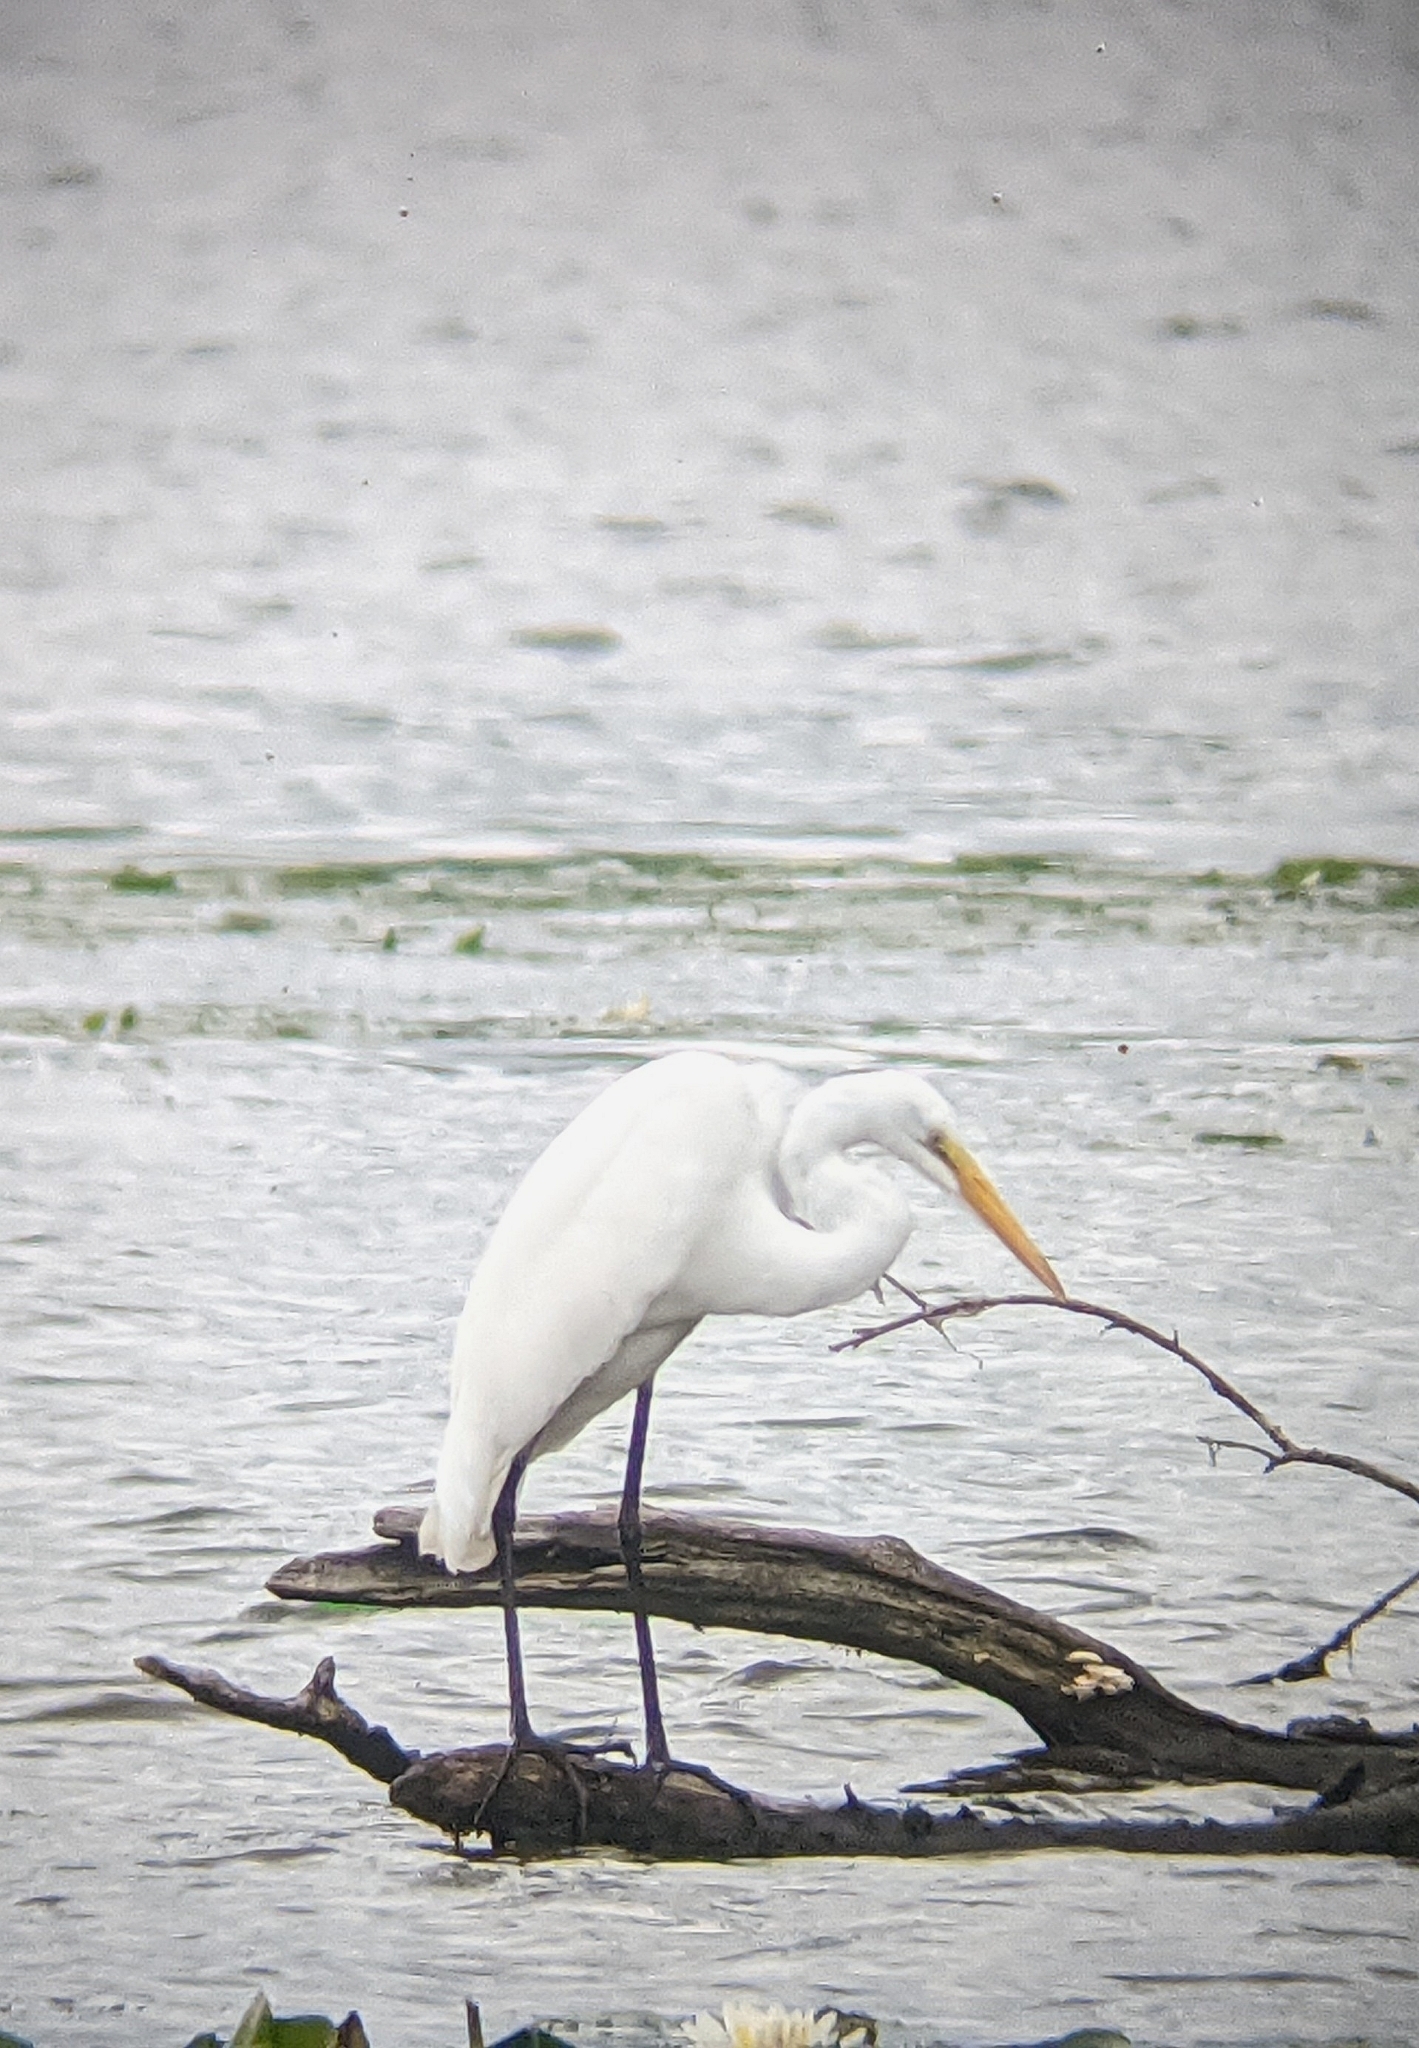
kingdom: Animalia
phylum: Chordata
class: Aves
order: Pelecaniformes
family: Ardeidae
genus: Ardea
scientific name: Ardea alba
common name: Great egret
